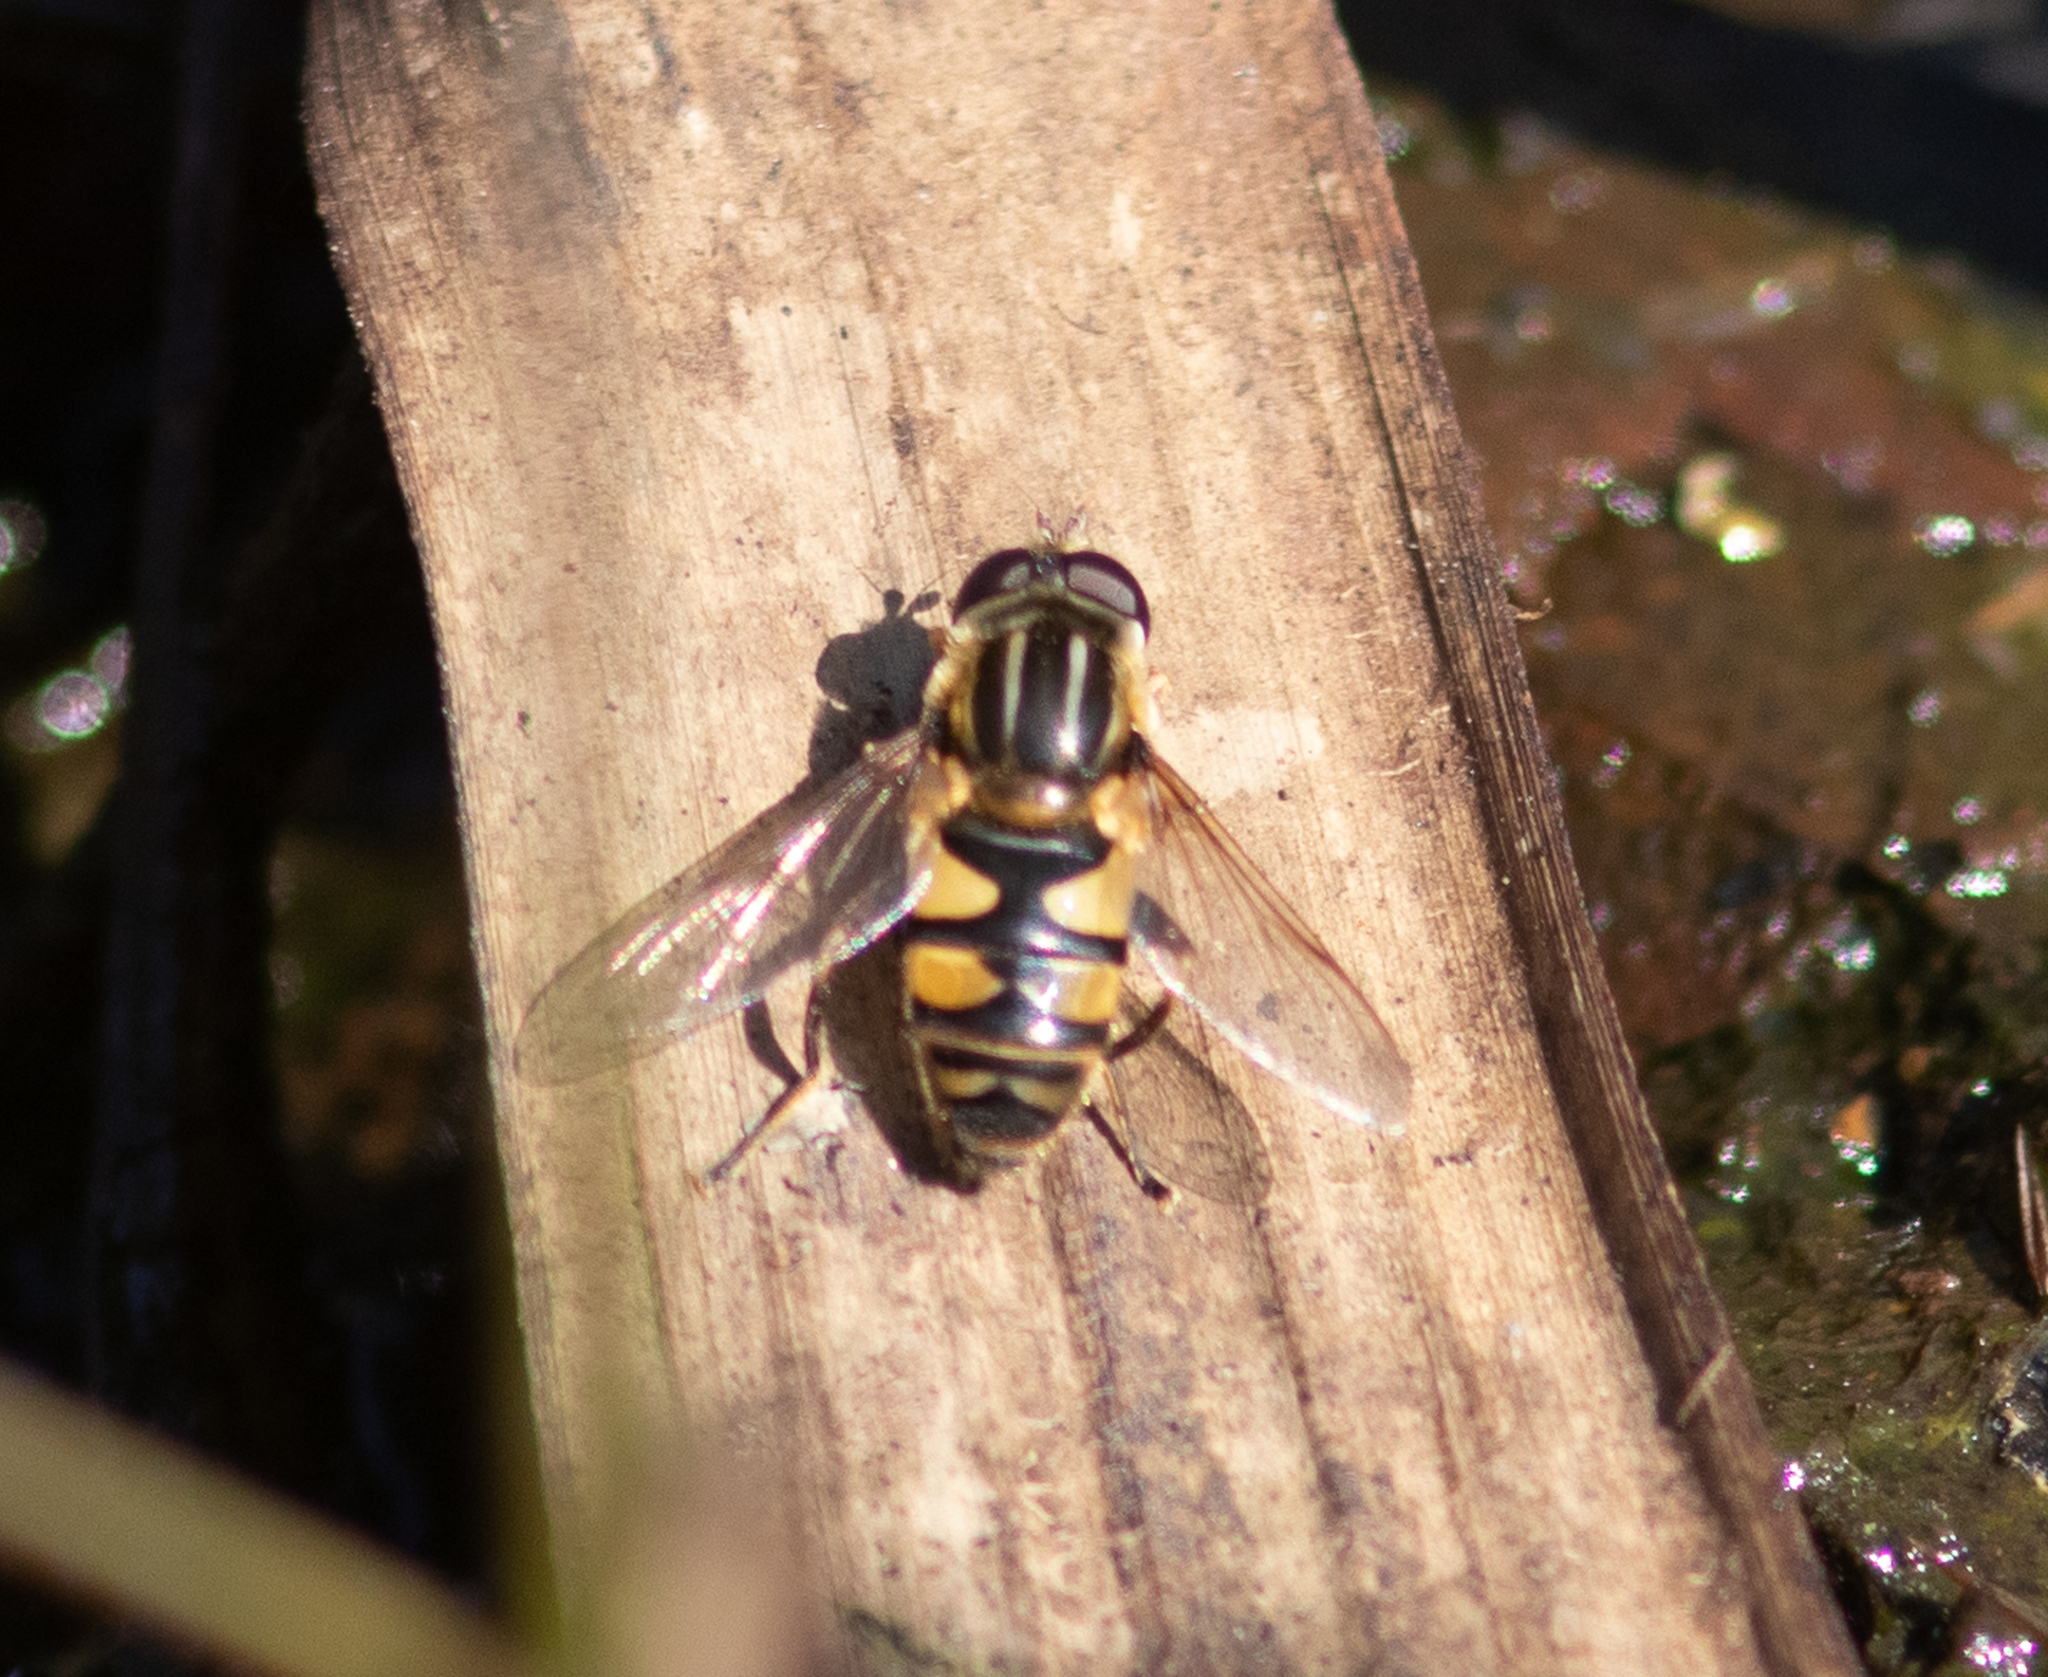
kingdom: Animalia
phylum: Arthropoda
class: Insecta
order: Diptera
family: Syrphidae
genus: Helophilus
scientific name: Helophilus fasciatus
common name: Narrow-headed marsh fly
